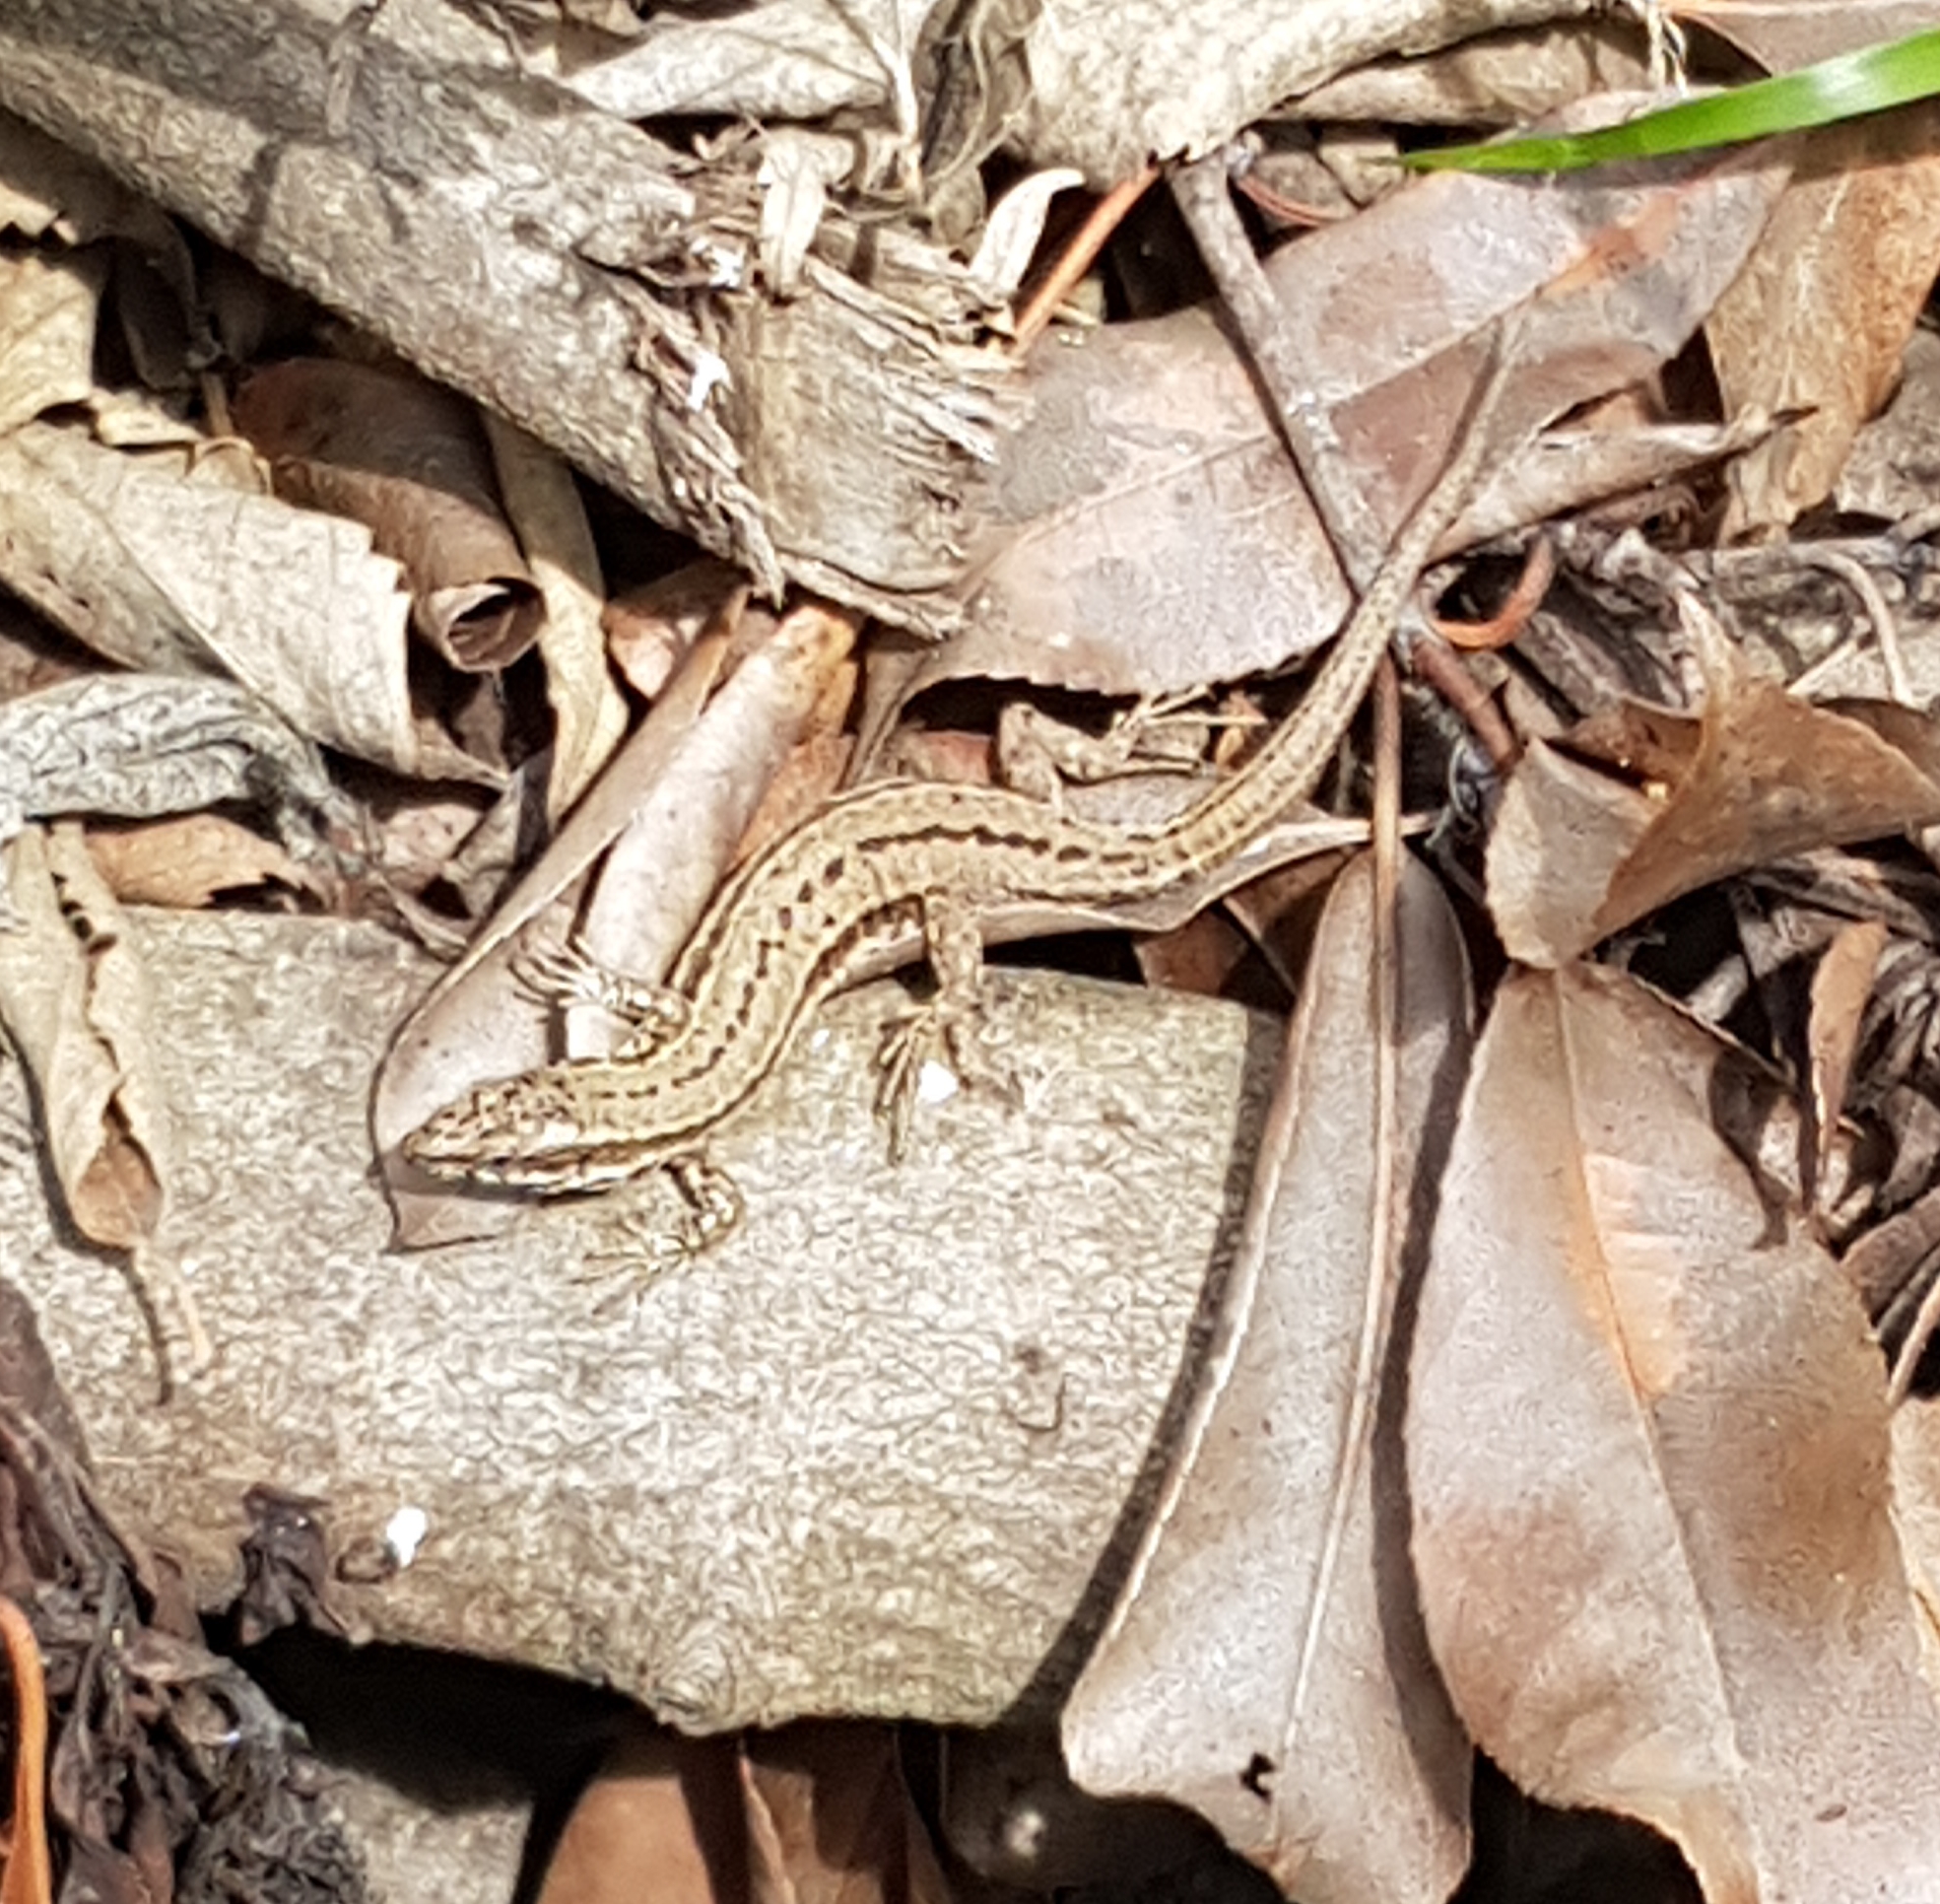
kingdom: Animalia
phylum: Chordata
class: Squamata
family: Lacertidae
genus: Podarcis
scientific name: Podarcis muralis
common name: Common wall lizard
